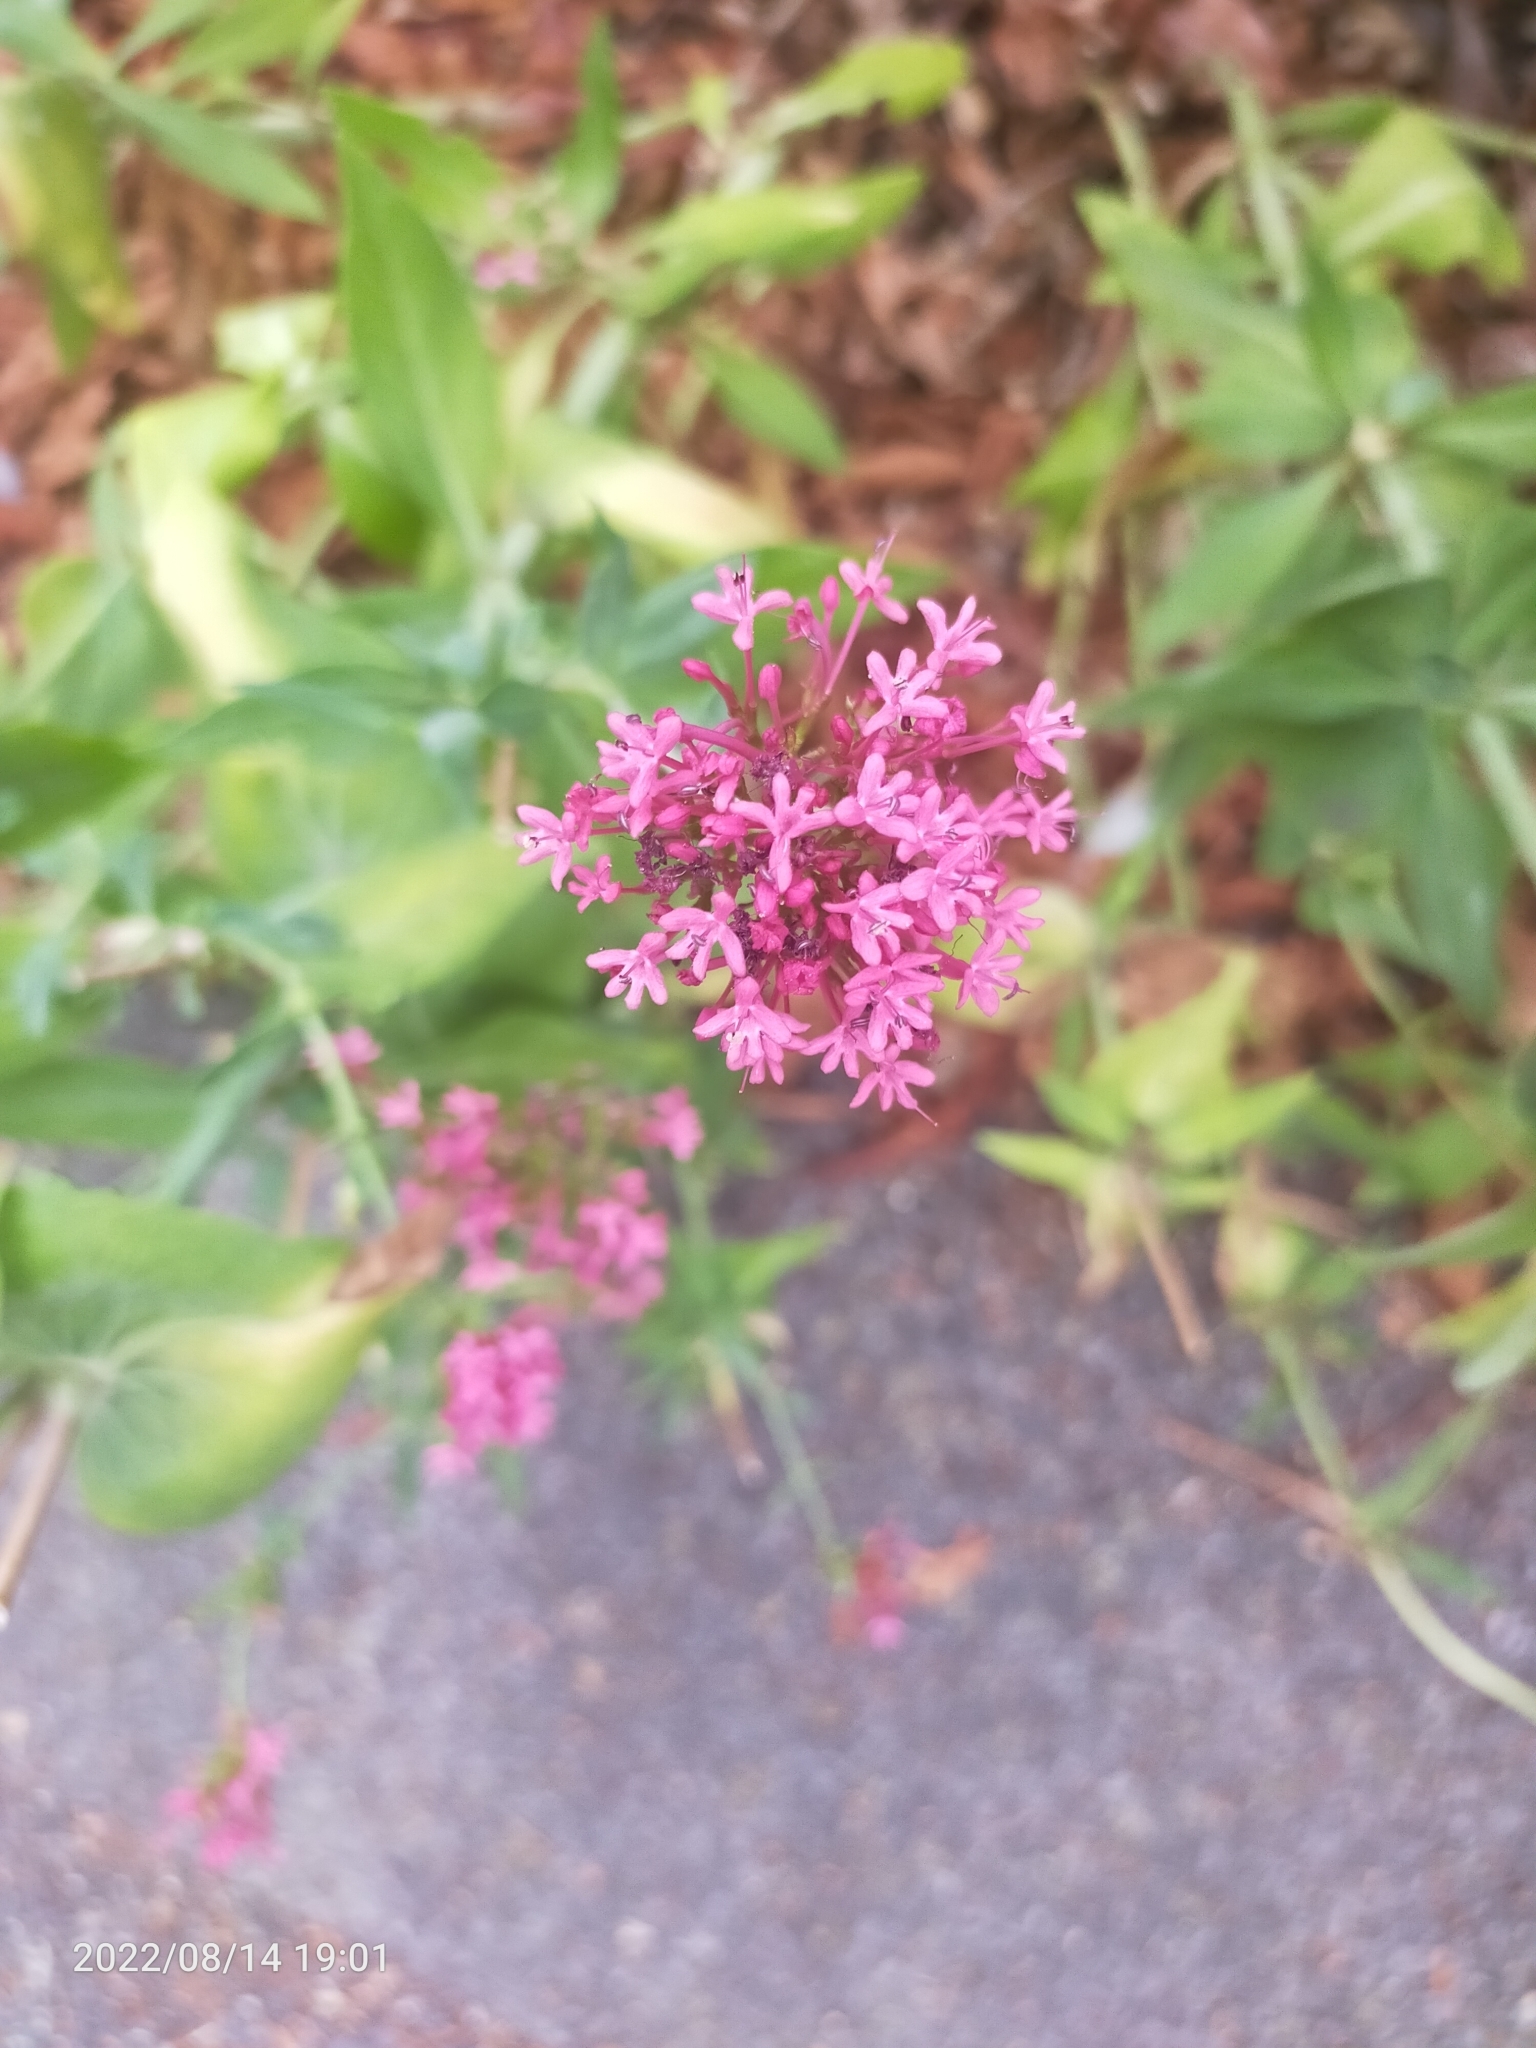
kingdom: Plantae
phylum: Tracheophyta
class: Magnoliopsida
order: Dipsacales
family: Caprifoliaceae
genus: Centranthus
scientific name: Centranthus ruber
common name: Red valerian
